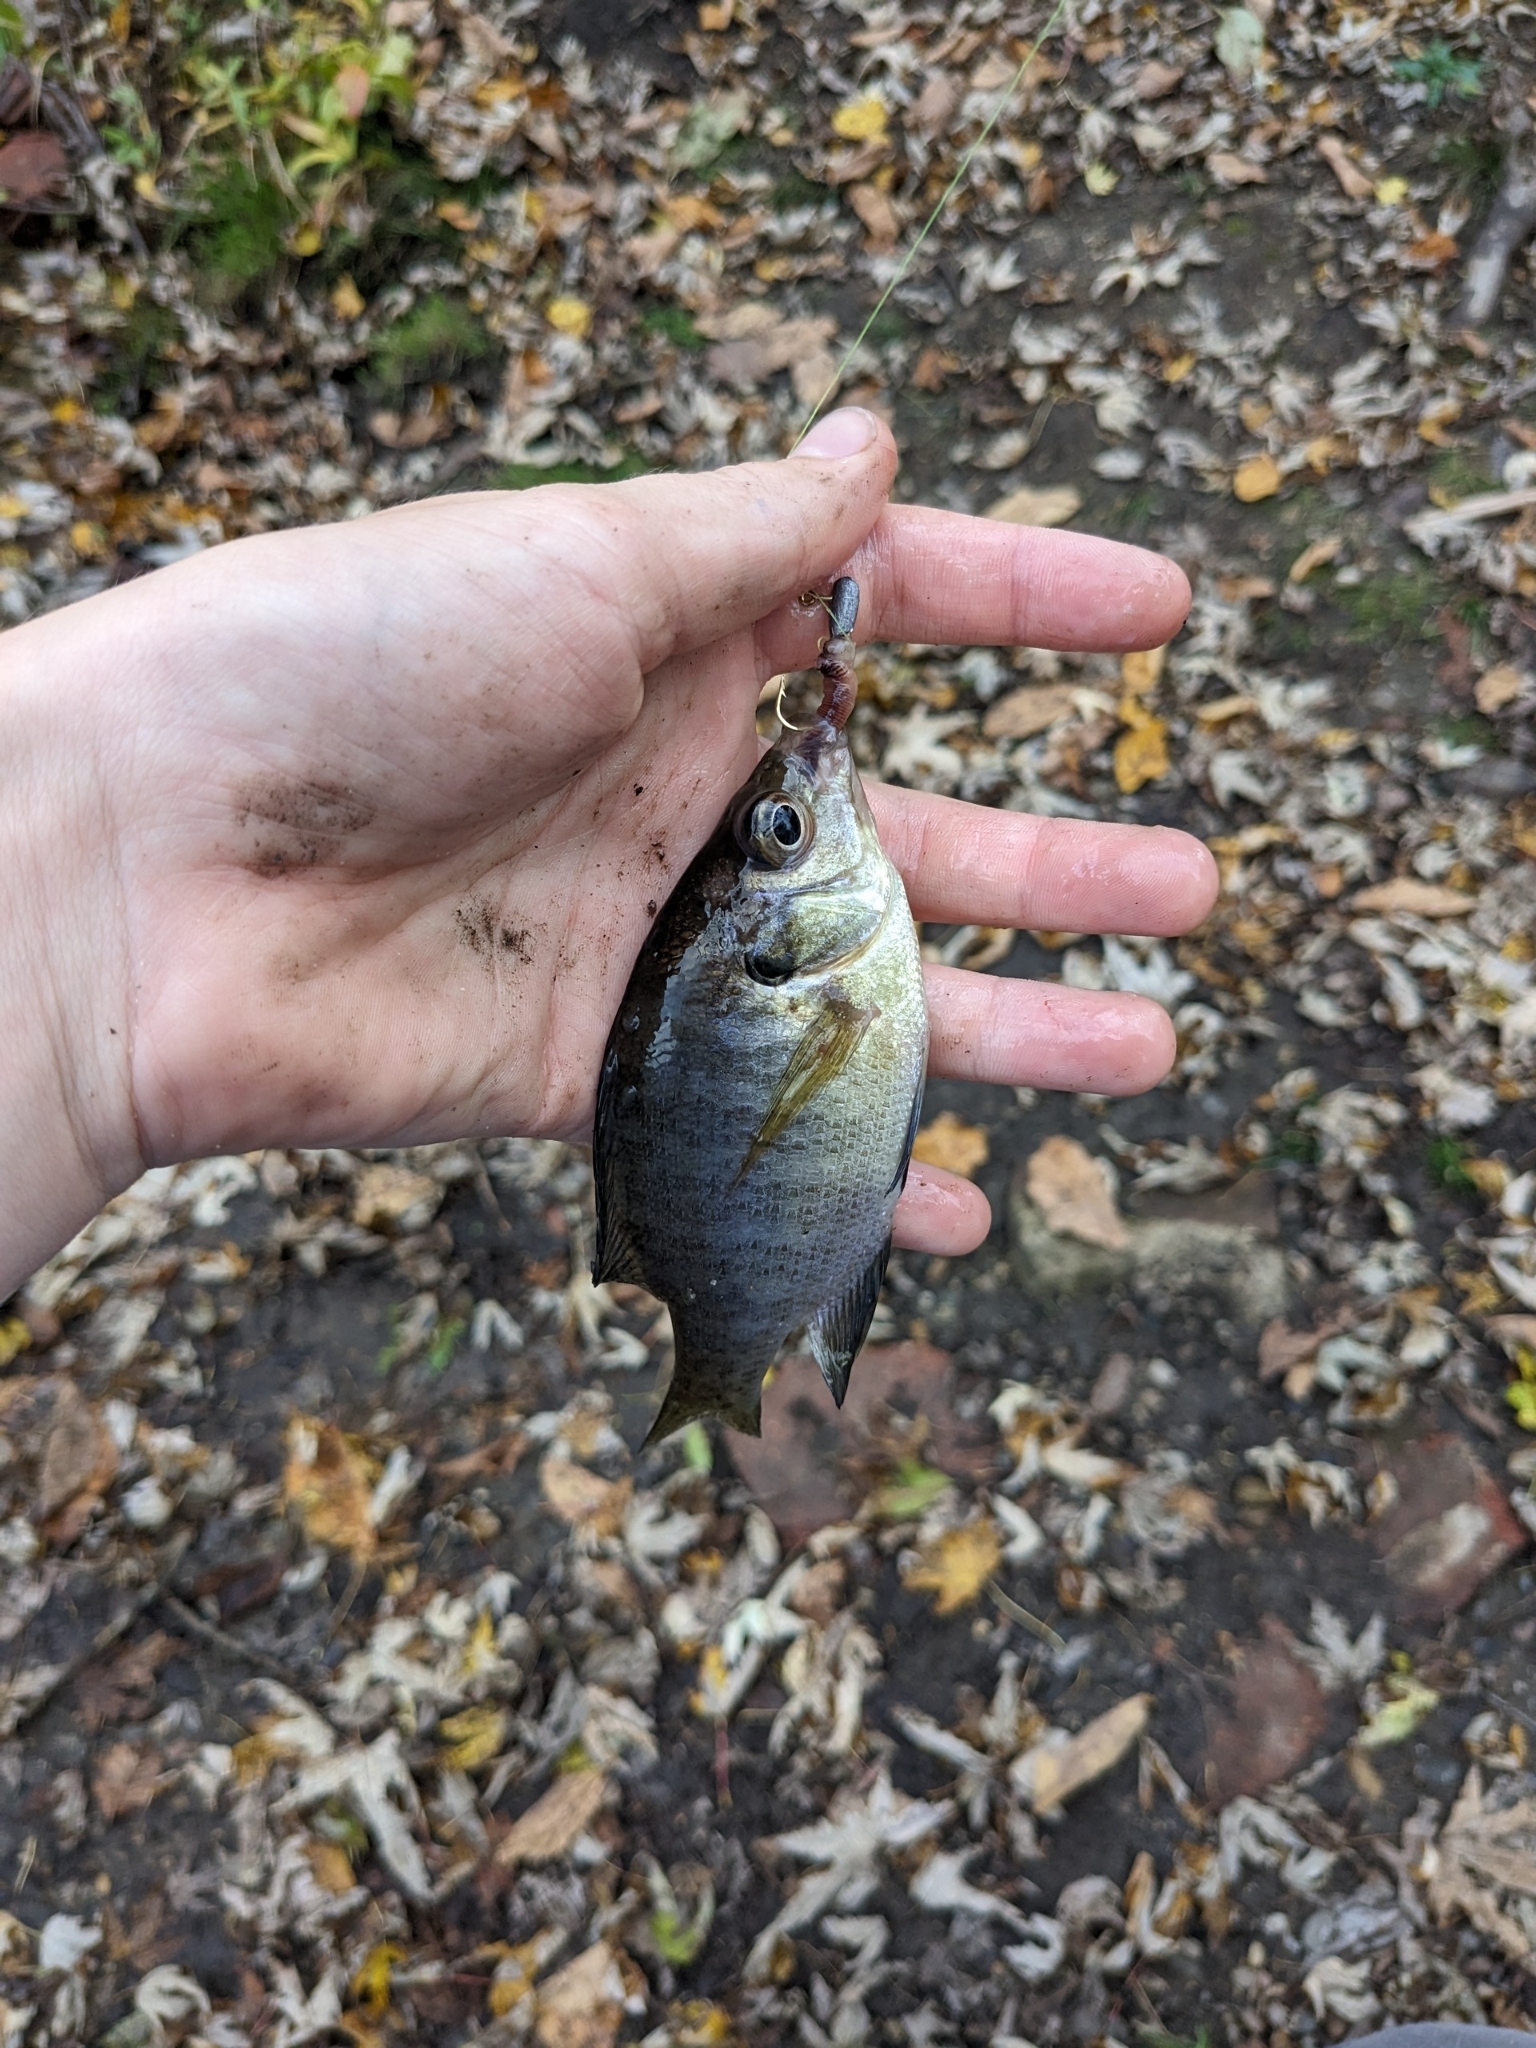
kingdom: Animalia
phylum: Chordata
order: Perciformes
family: Centrarchidae
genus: Lepomis
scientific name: Lepomis macrochirus
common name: Bluegill
